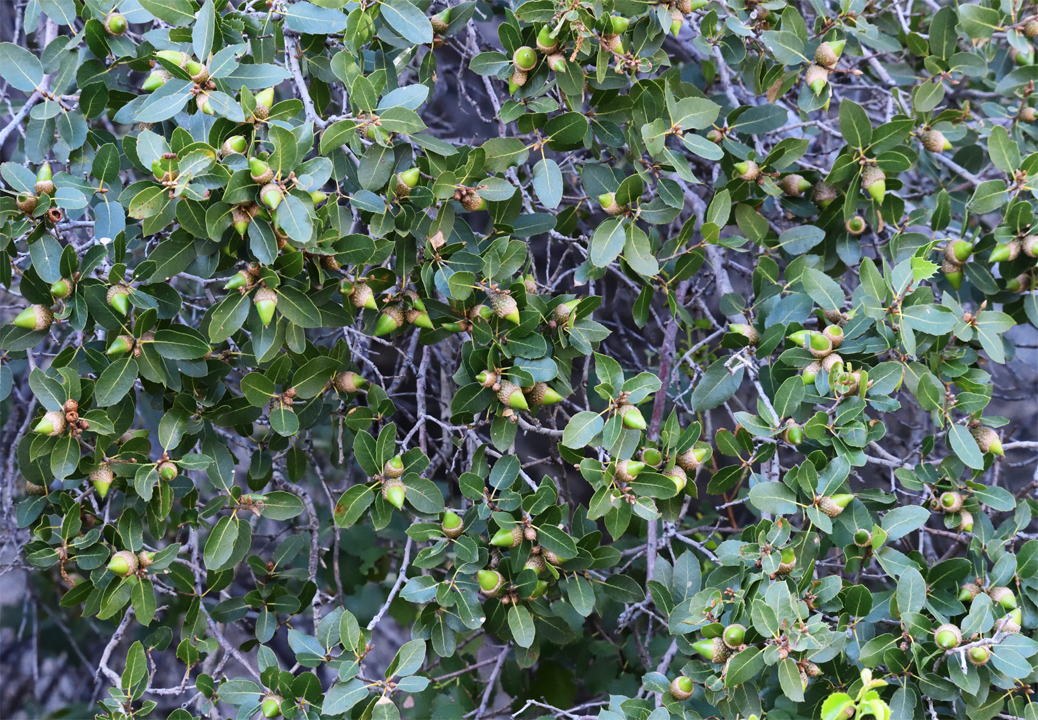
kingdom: Plantae
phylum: Tracheophyta
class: Magnoliopsida
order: Fagales
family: Fagaceae
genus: Quercus
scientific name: Quercus wislizeni
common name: Interior live oak
